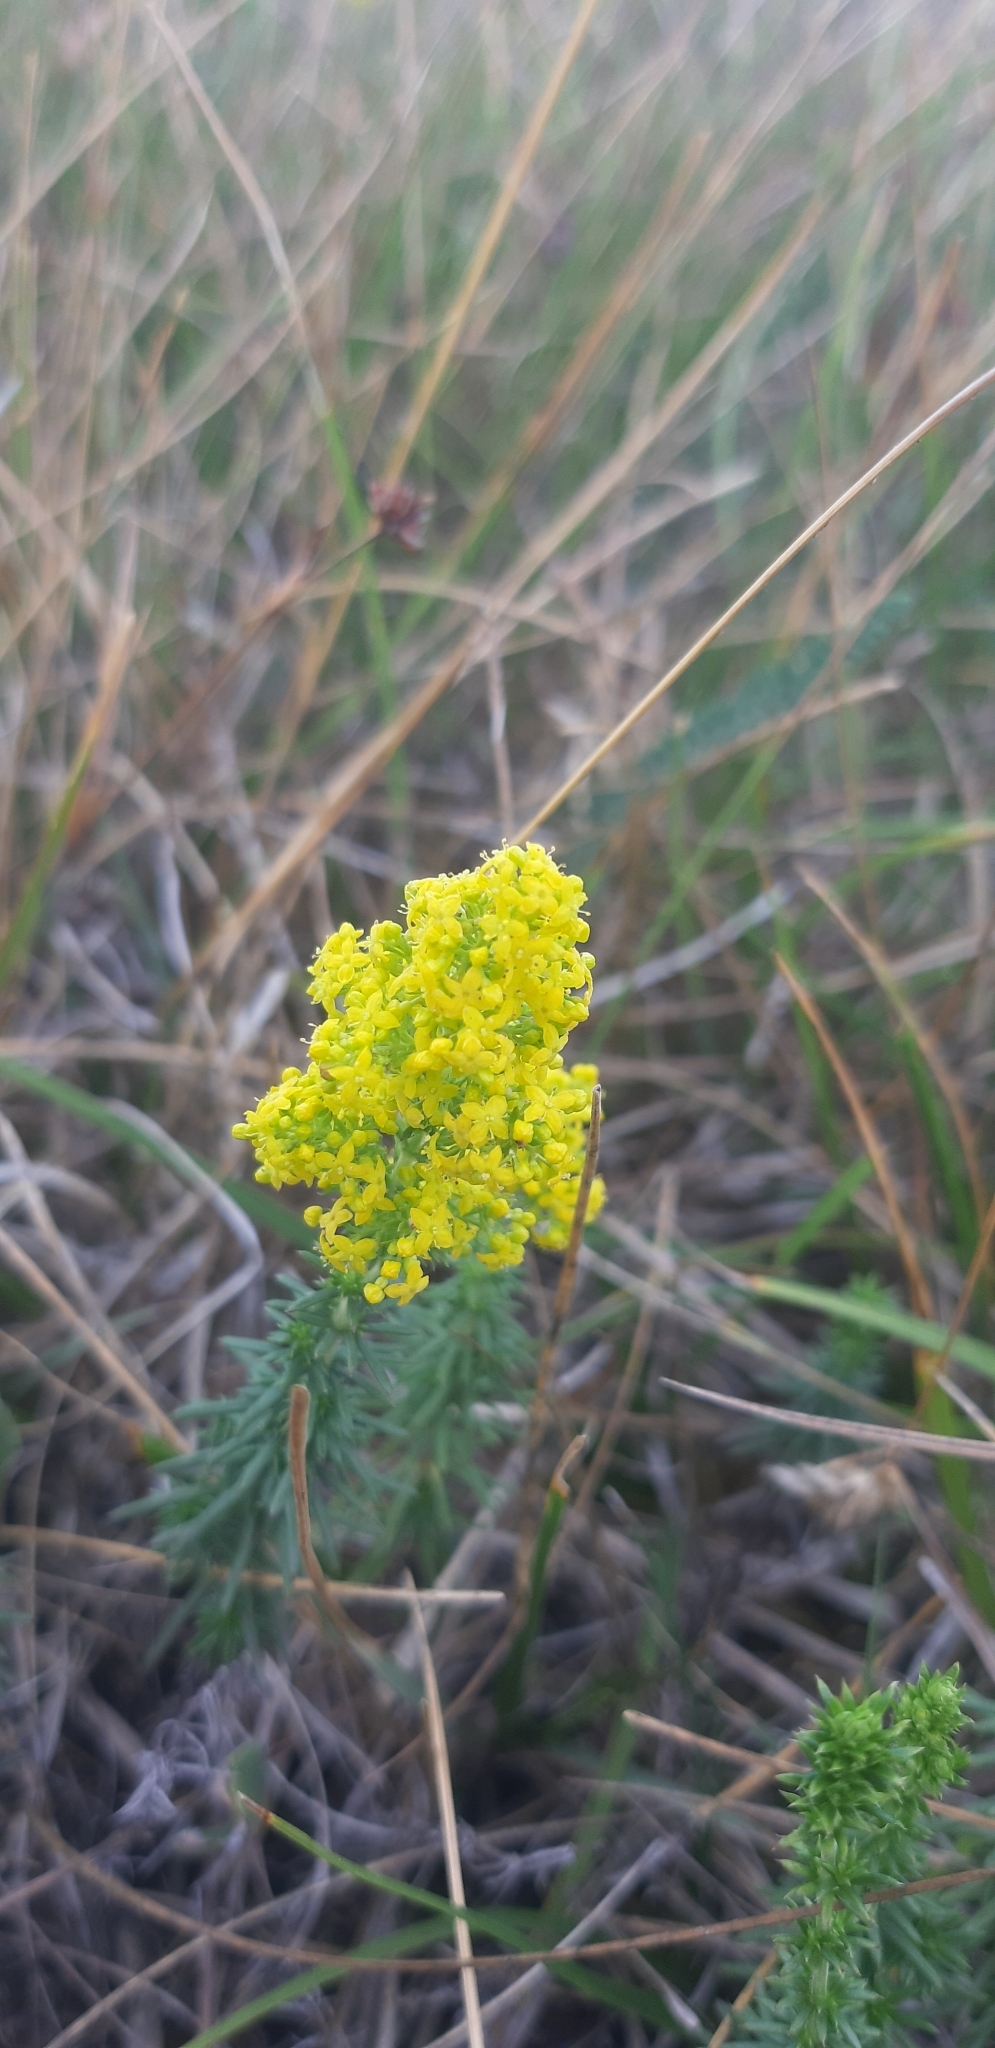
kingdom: Plantae
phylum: Tracheophyta
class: Magnoliopsida
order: Gentianales
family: Rubiaceae
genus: Galium
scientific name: Galium verum
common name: Lady's bedstraw
